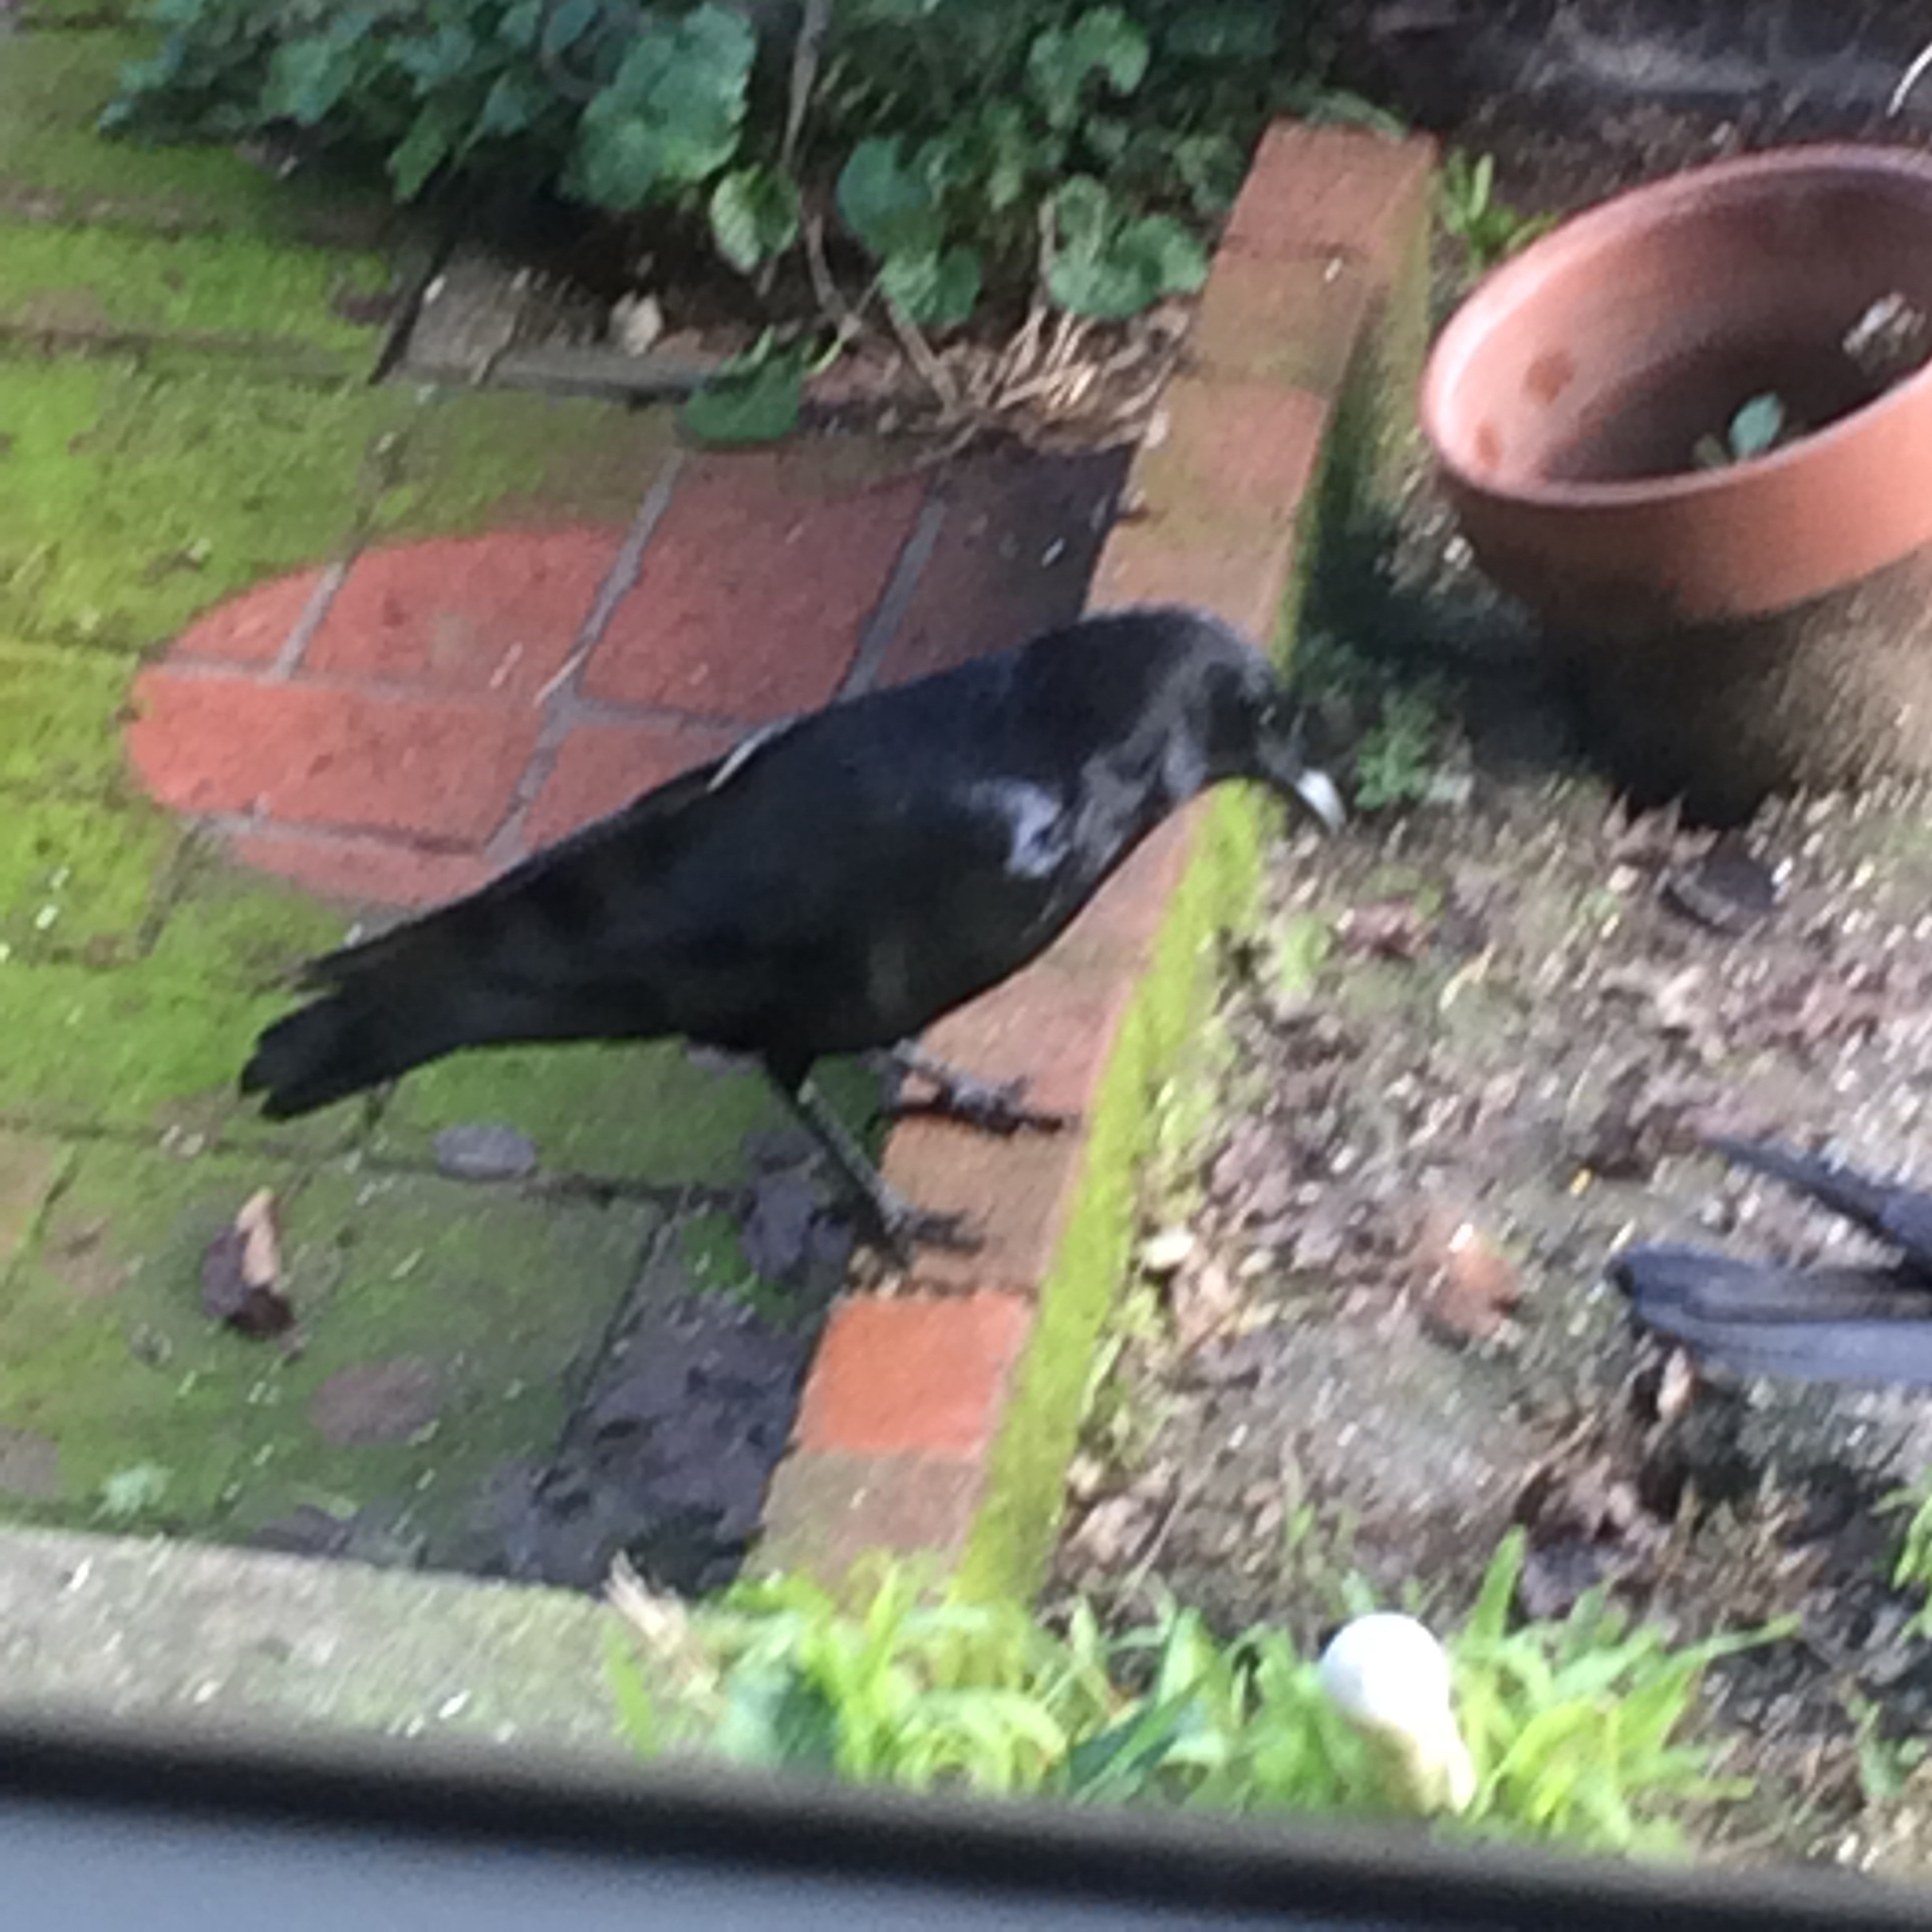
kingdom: Animalia
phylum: Chordata
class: Aves
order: Passeriformes
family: Corvidae
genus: Corvus
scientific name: Corvus brachyrhynchos
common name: American crow
